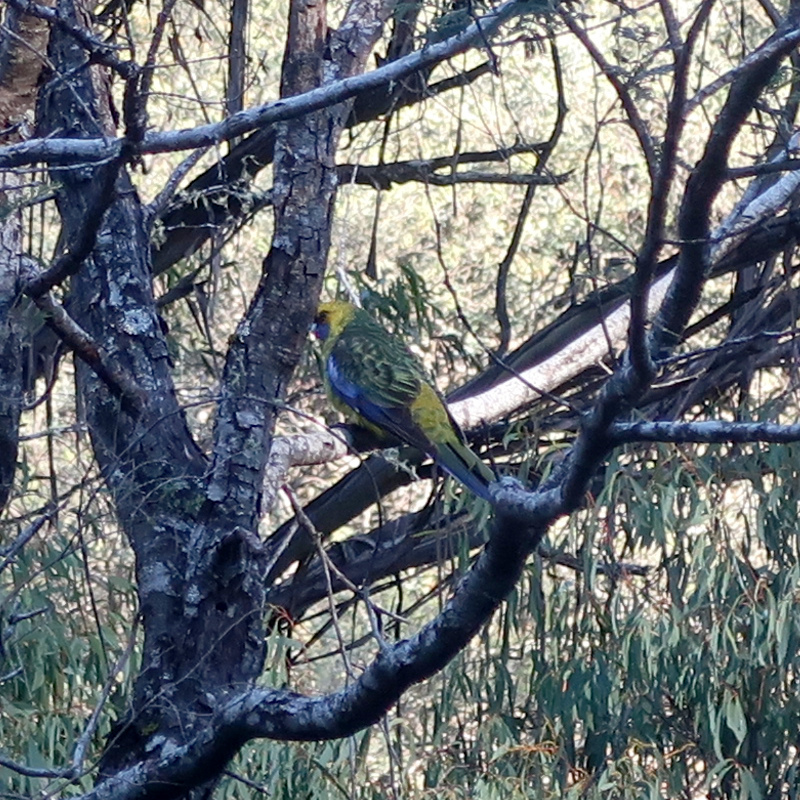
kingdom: Animalia
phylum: Chordata
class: Aves
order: Psittaciformes
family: Psittacidae
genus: Platycercus
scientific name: Platycercus caledonicus
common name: Green rosella
